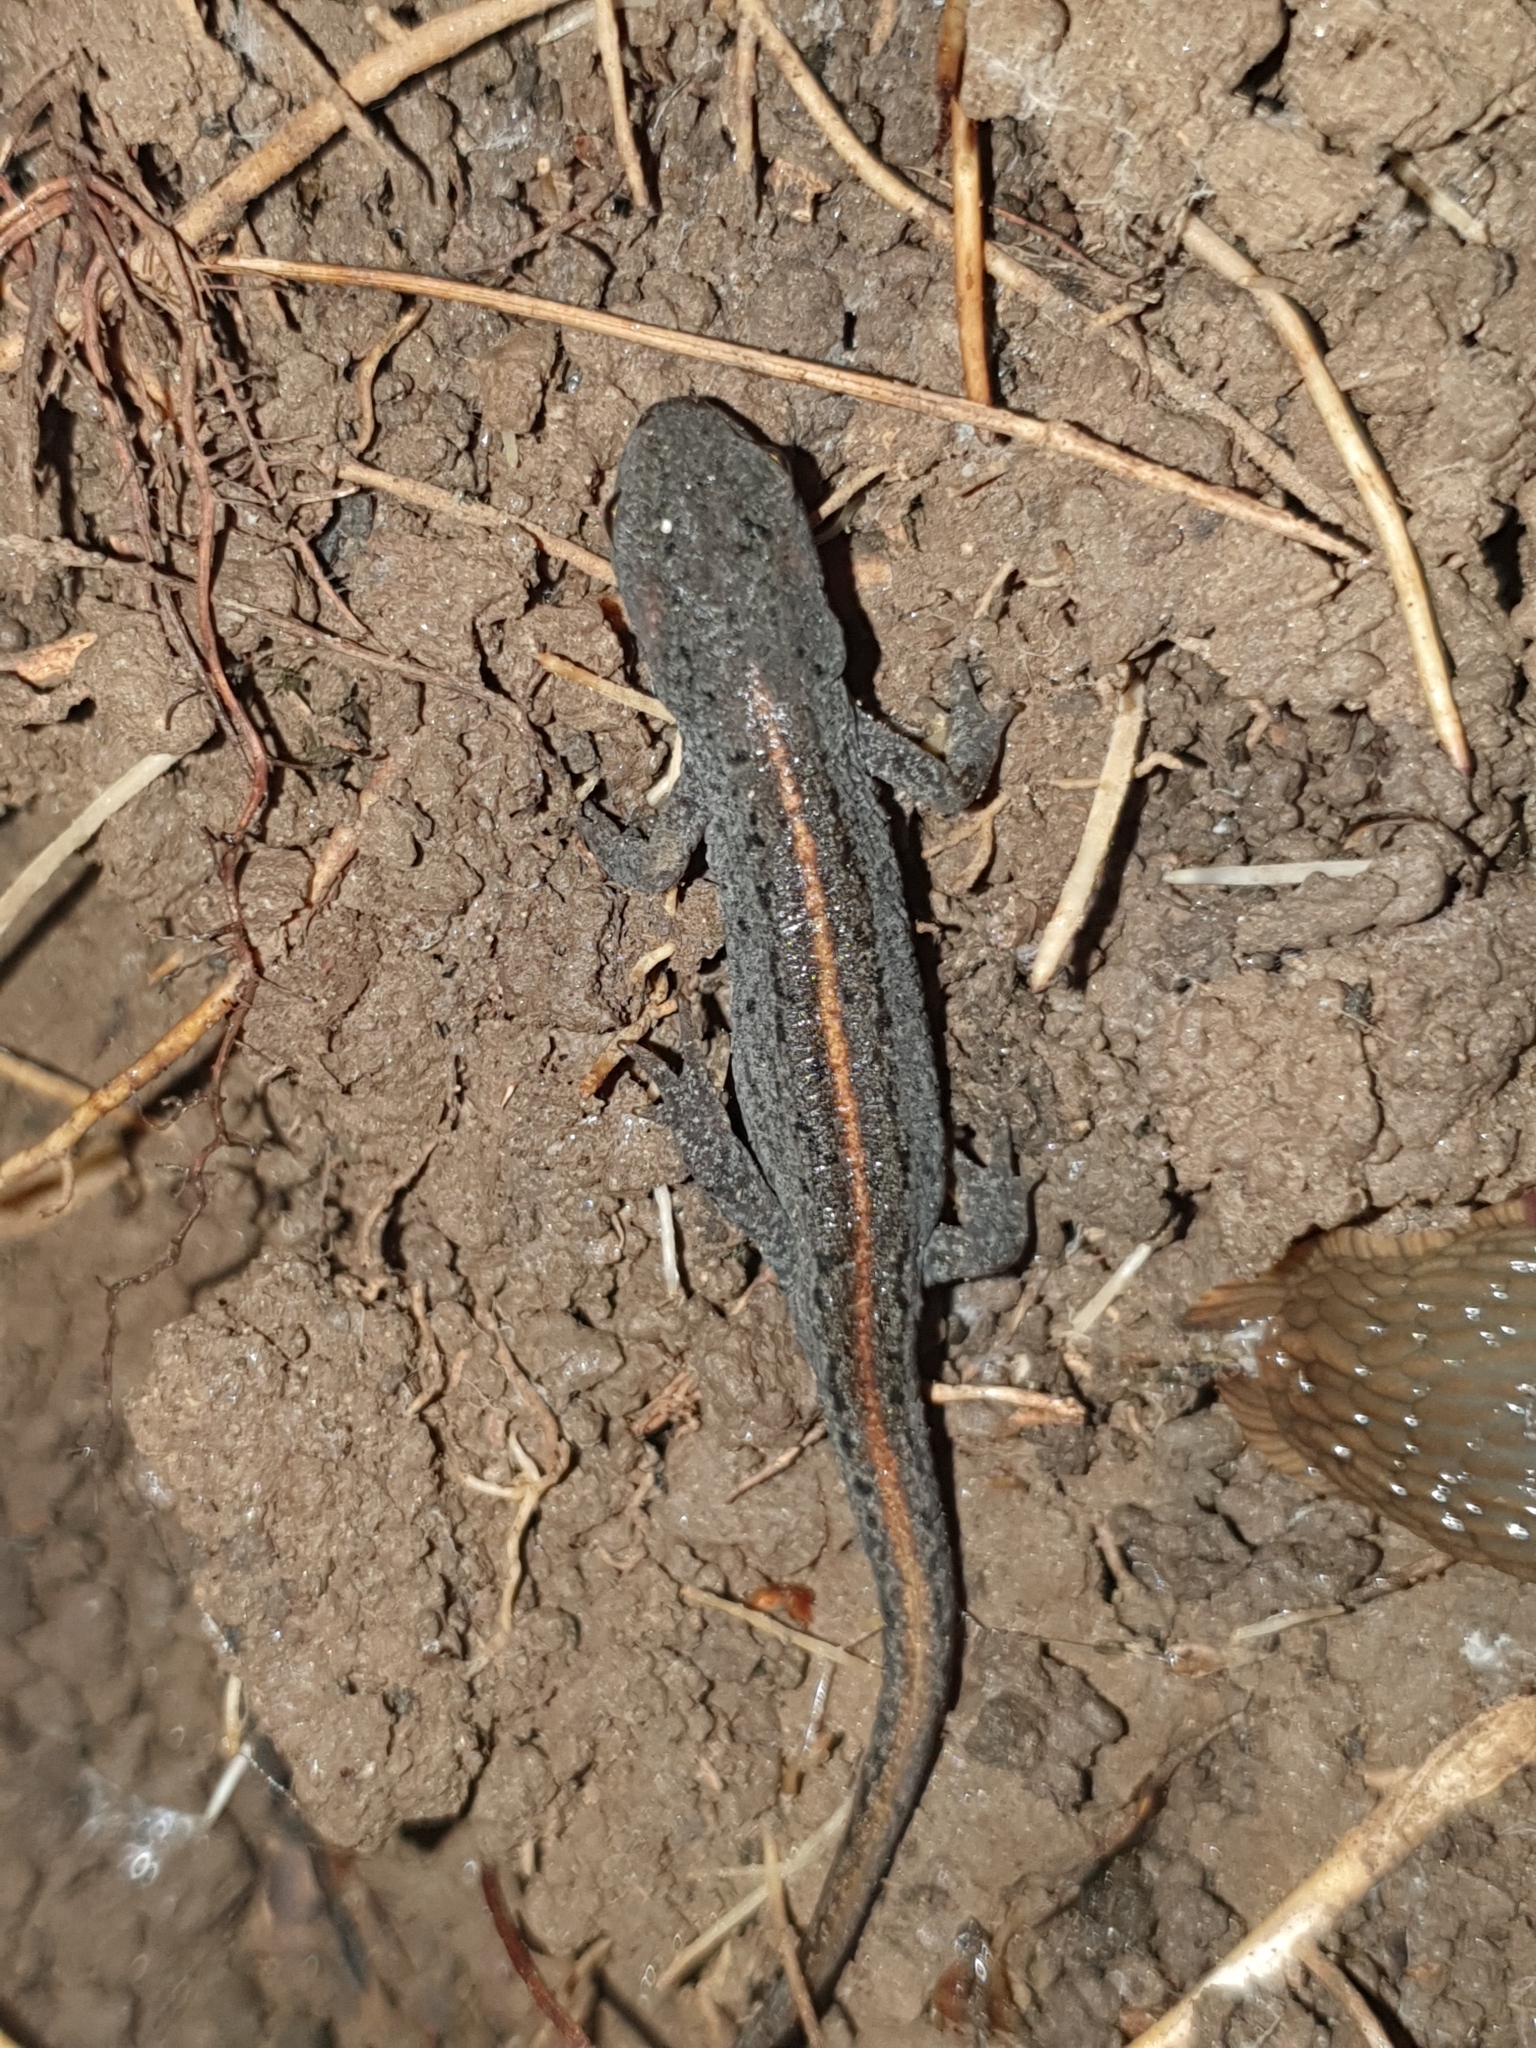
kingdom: Animalia
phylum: Chordata
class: Amphibia
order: Caudata
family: Salamandridae
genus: Lissotriton
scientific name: Lissotriton boscai
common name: Bosca's newt
